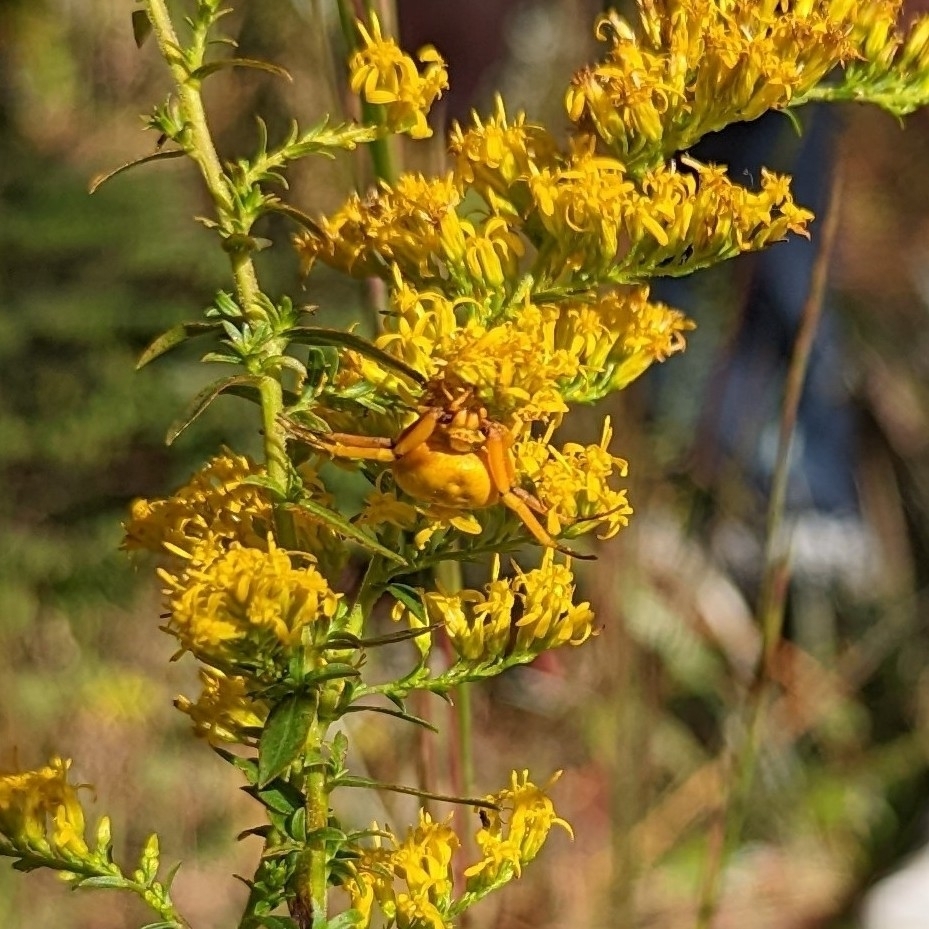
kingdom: Animalia
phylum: Arthropoda
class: Arachnida
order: Araneae
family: Thomisidae
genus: Misumenoides
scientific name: Misumenoides formosipes
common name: White-banded crab spider
